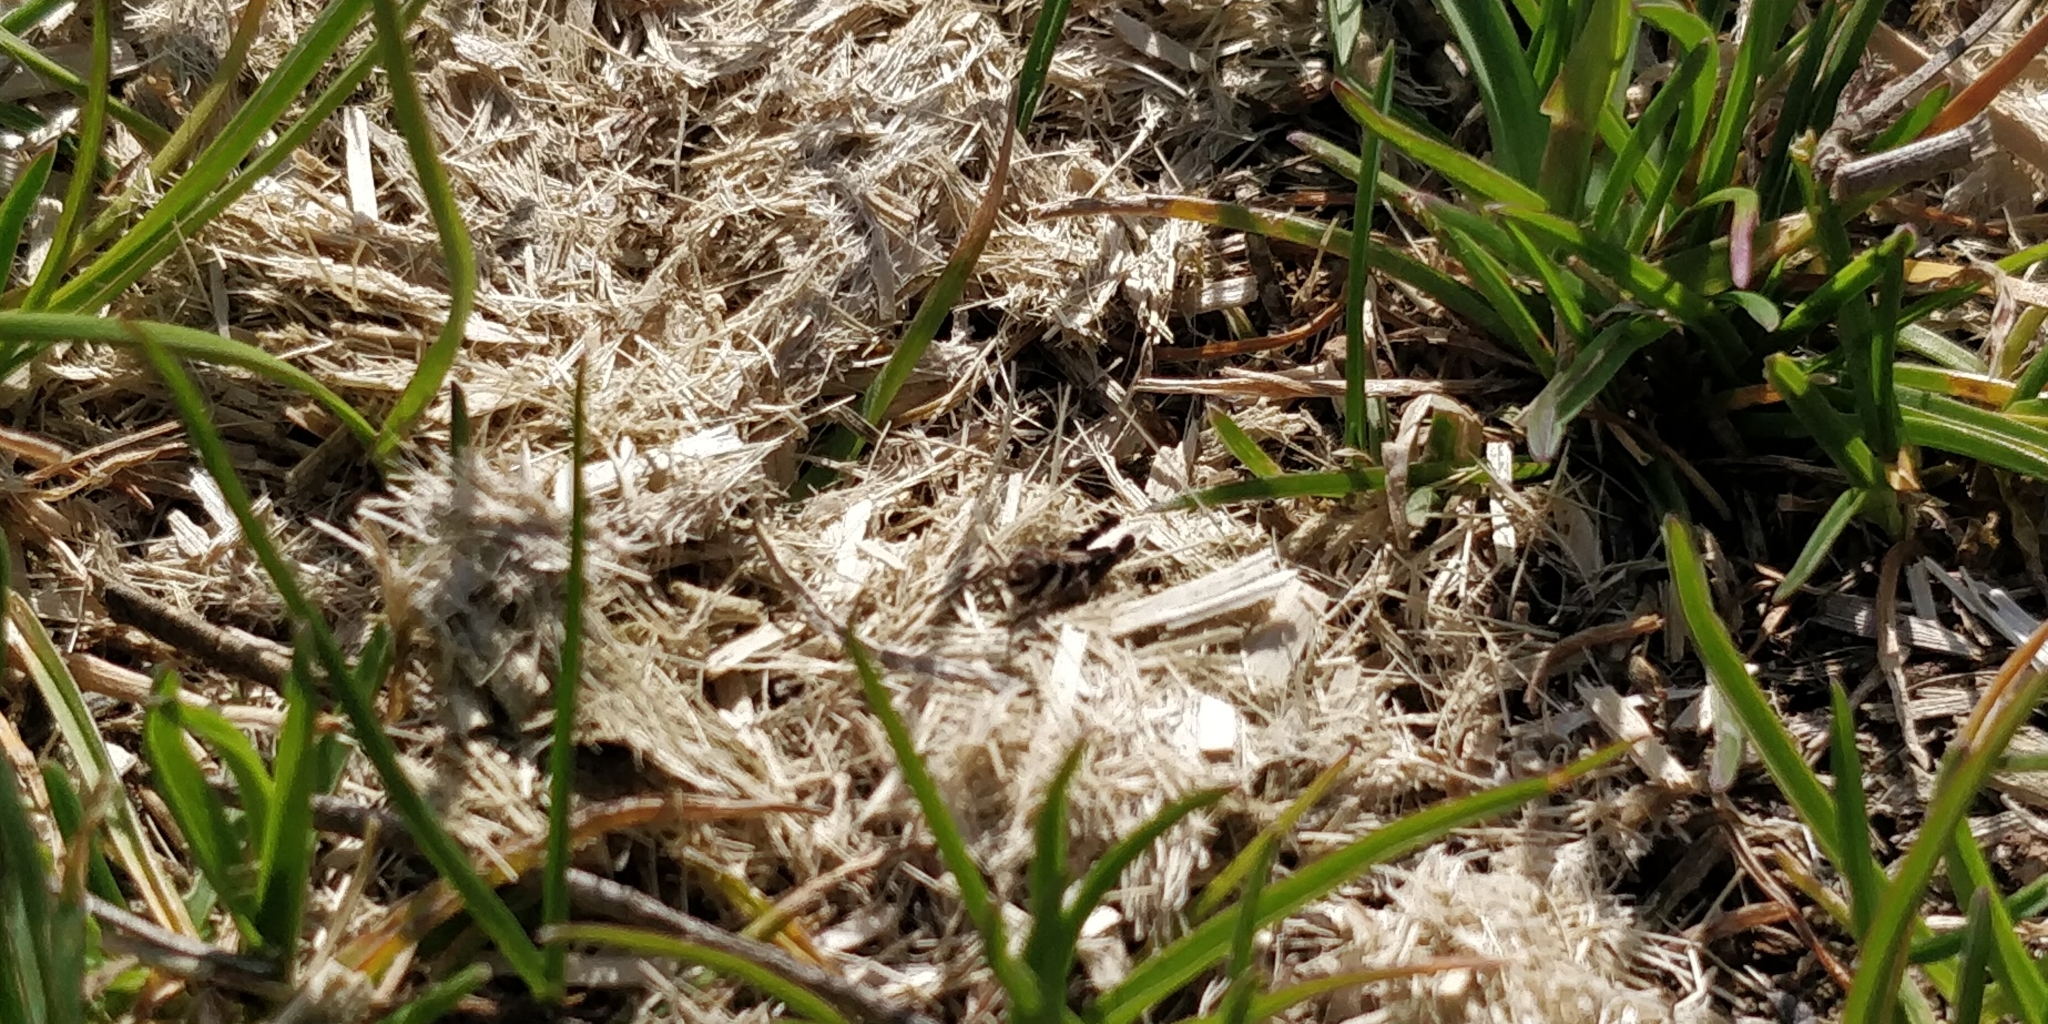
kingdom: Animalia
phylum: Arthropoda
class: Insecta
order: Orthoptera
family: Acrididae
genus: Camnula
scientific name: Camnula pellucida
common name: Clear-winged grasshopper
